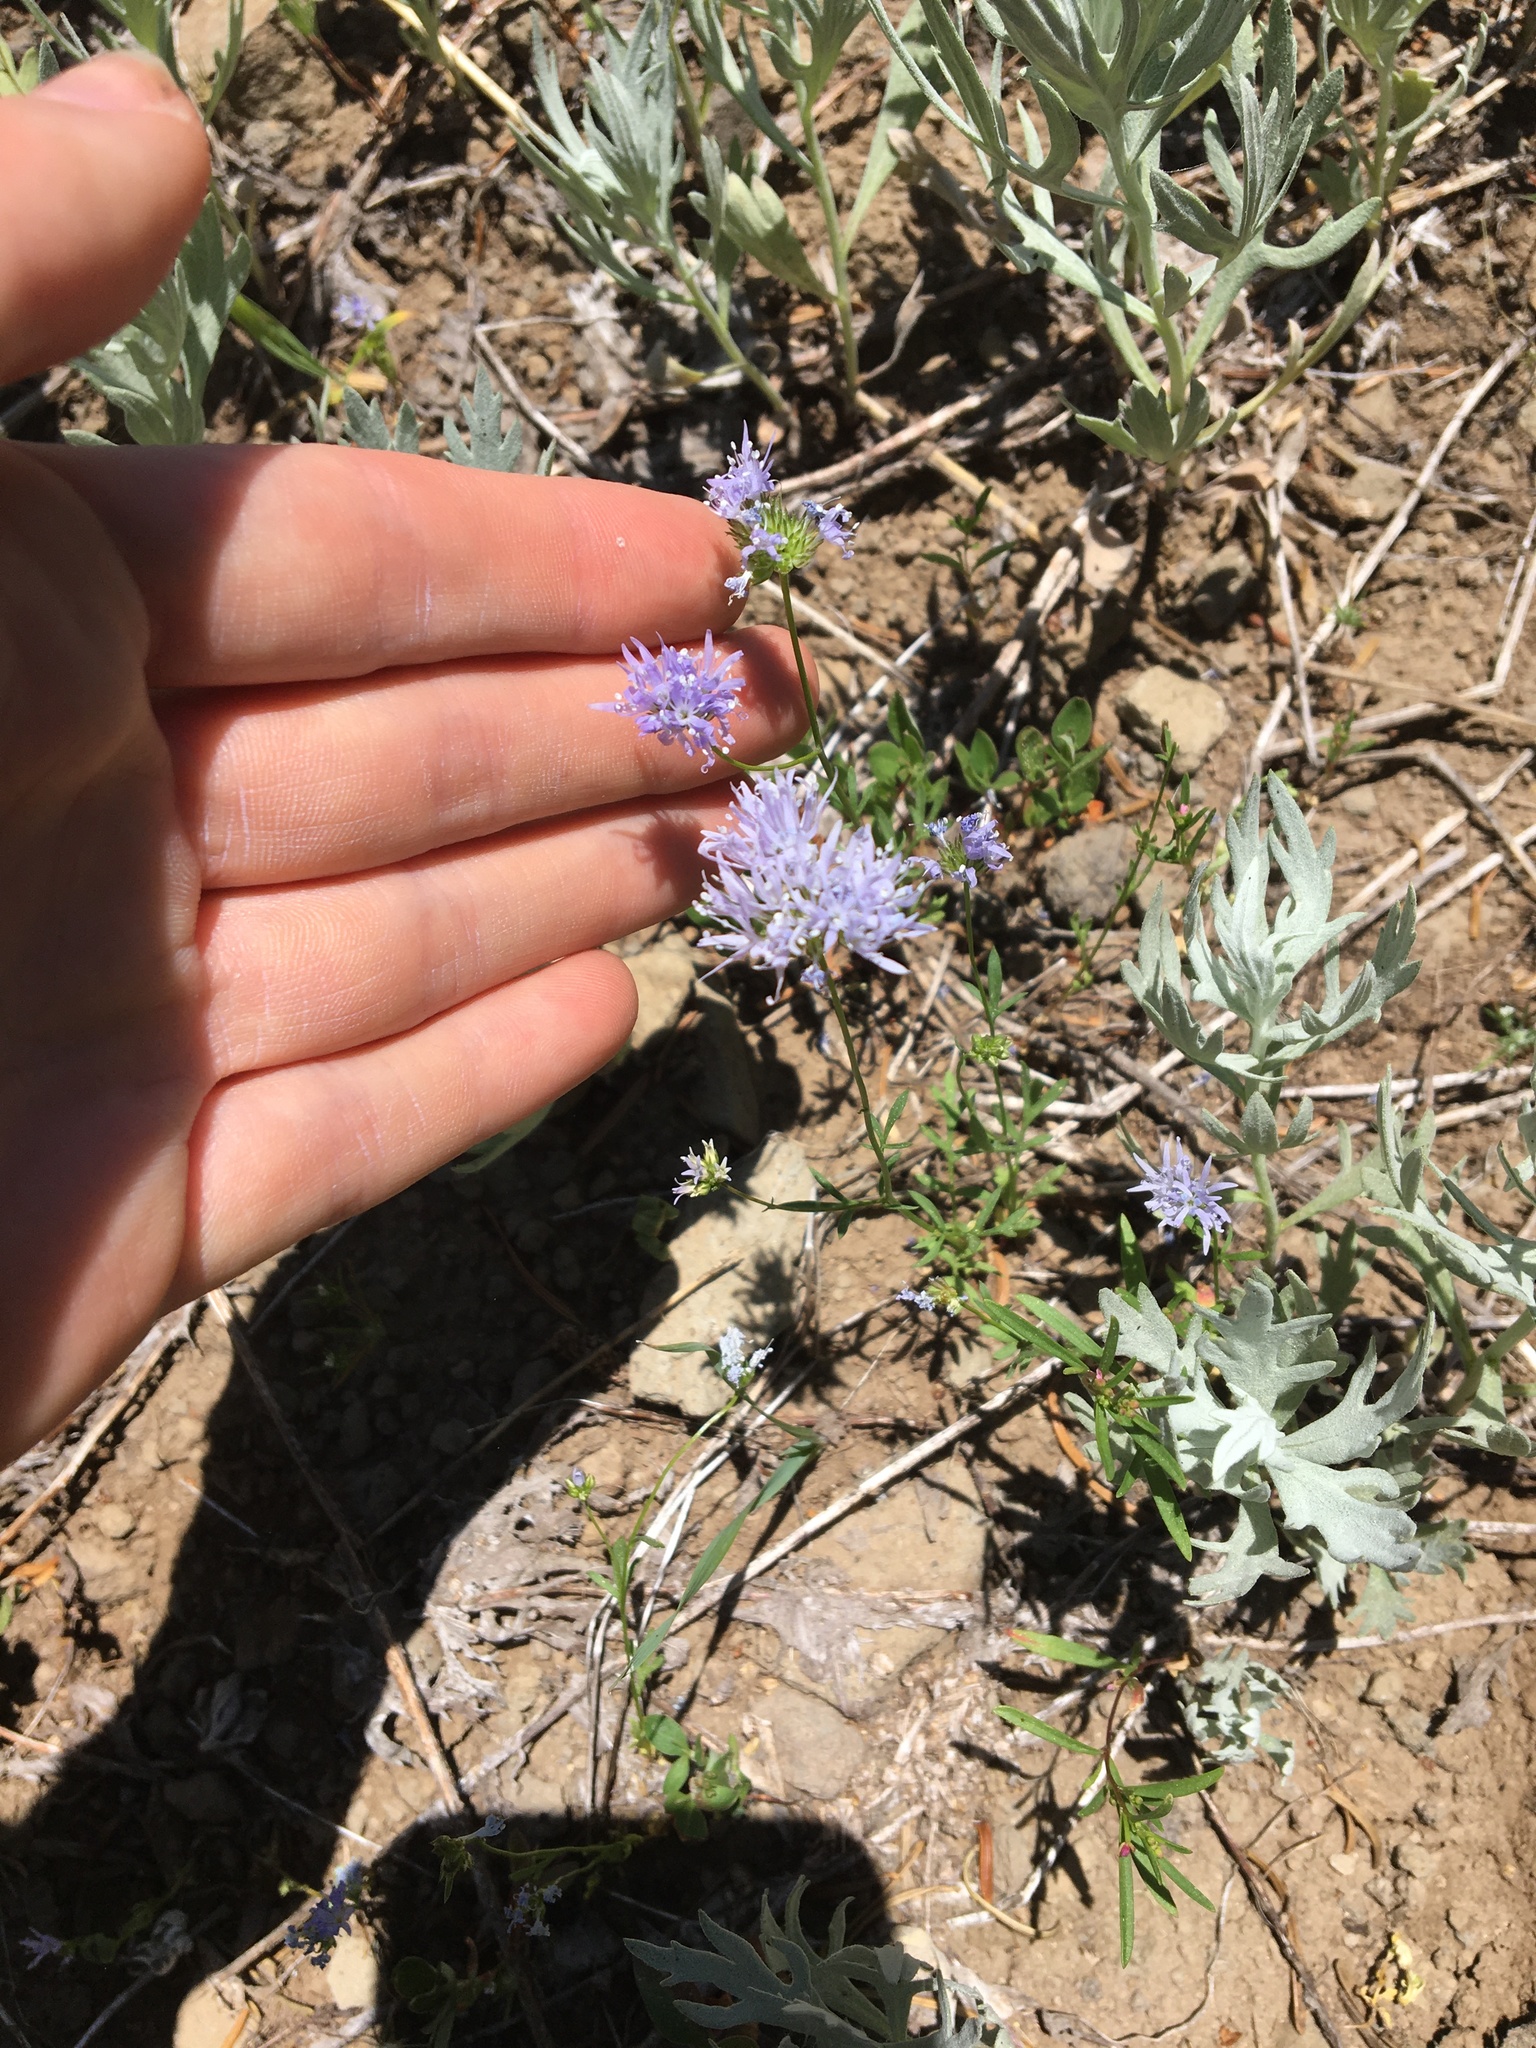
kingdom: Plantae
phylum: Tracheophyta
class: Magnoliopsida
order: Ericales
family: Polemoniaceae
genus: Gilia
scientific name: Gilia capitata
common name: Bluehead gilia
